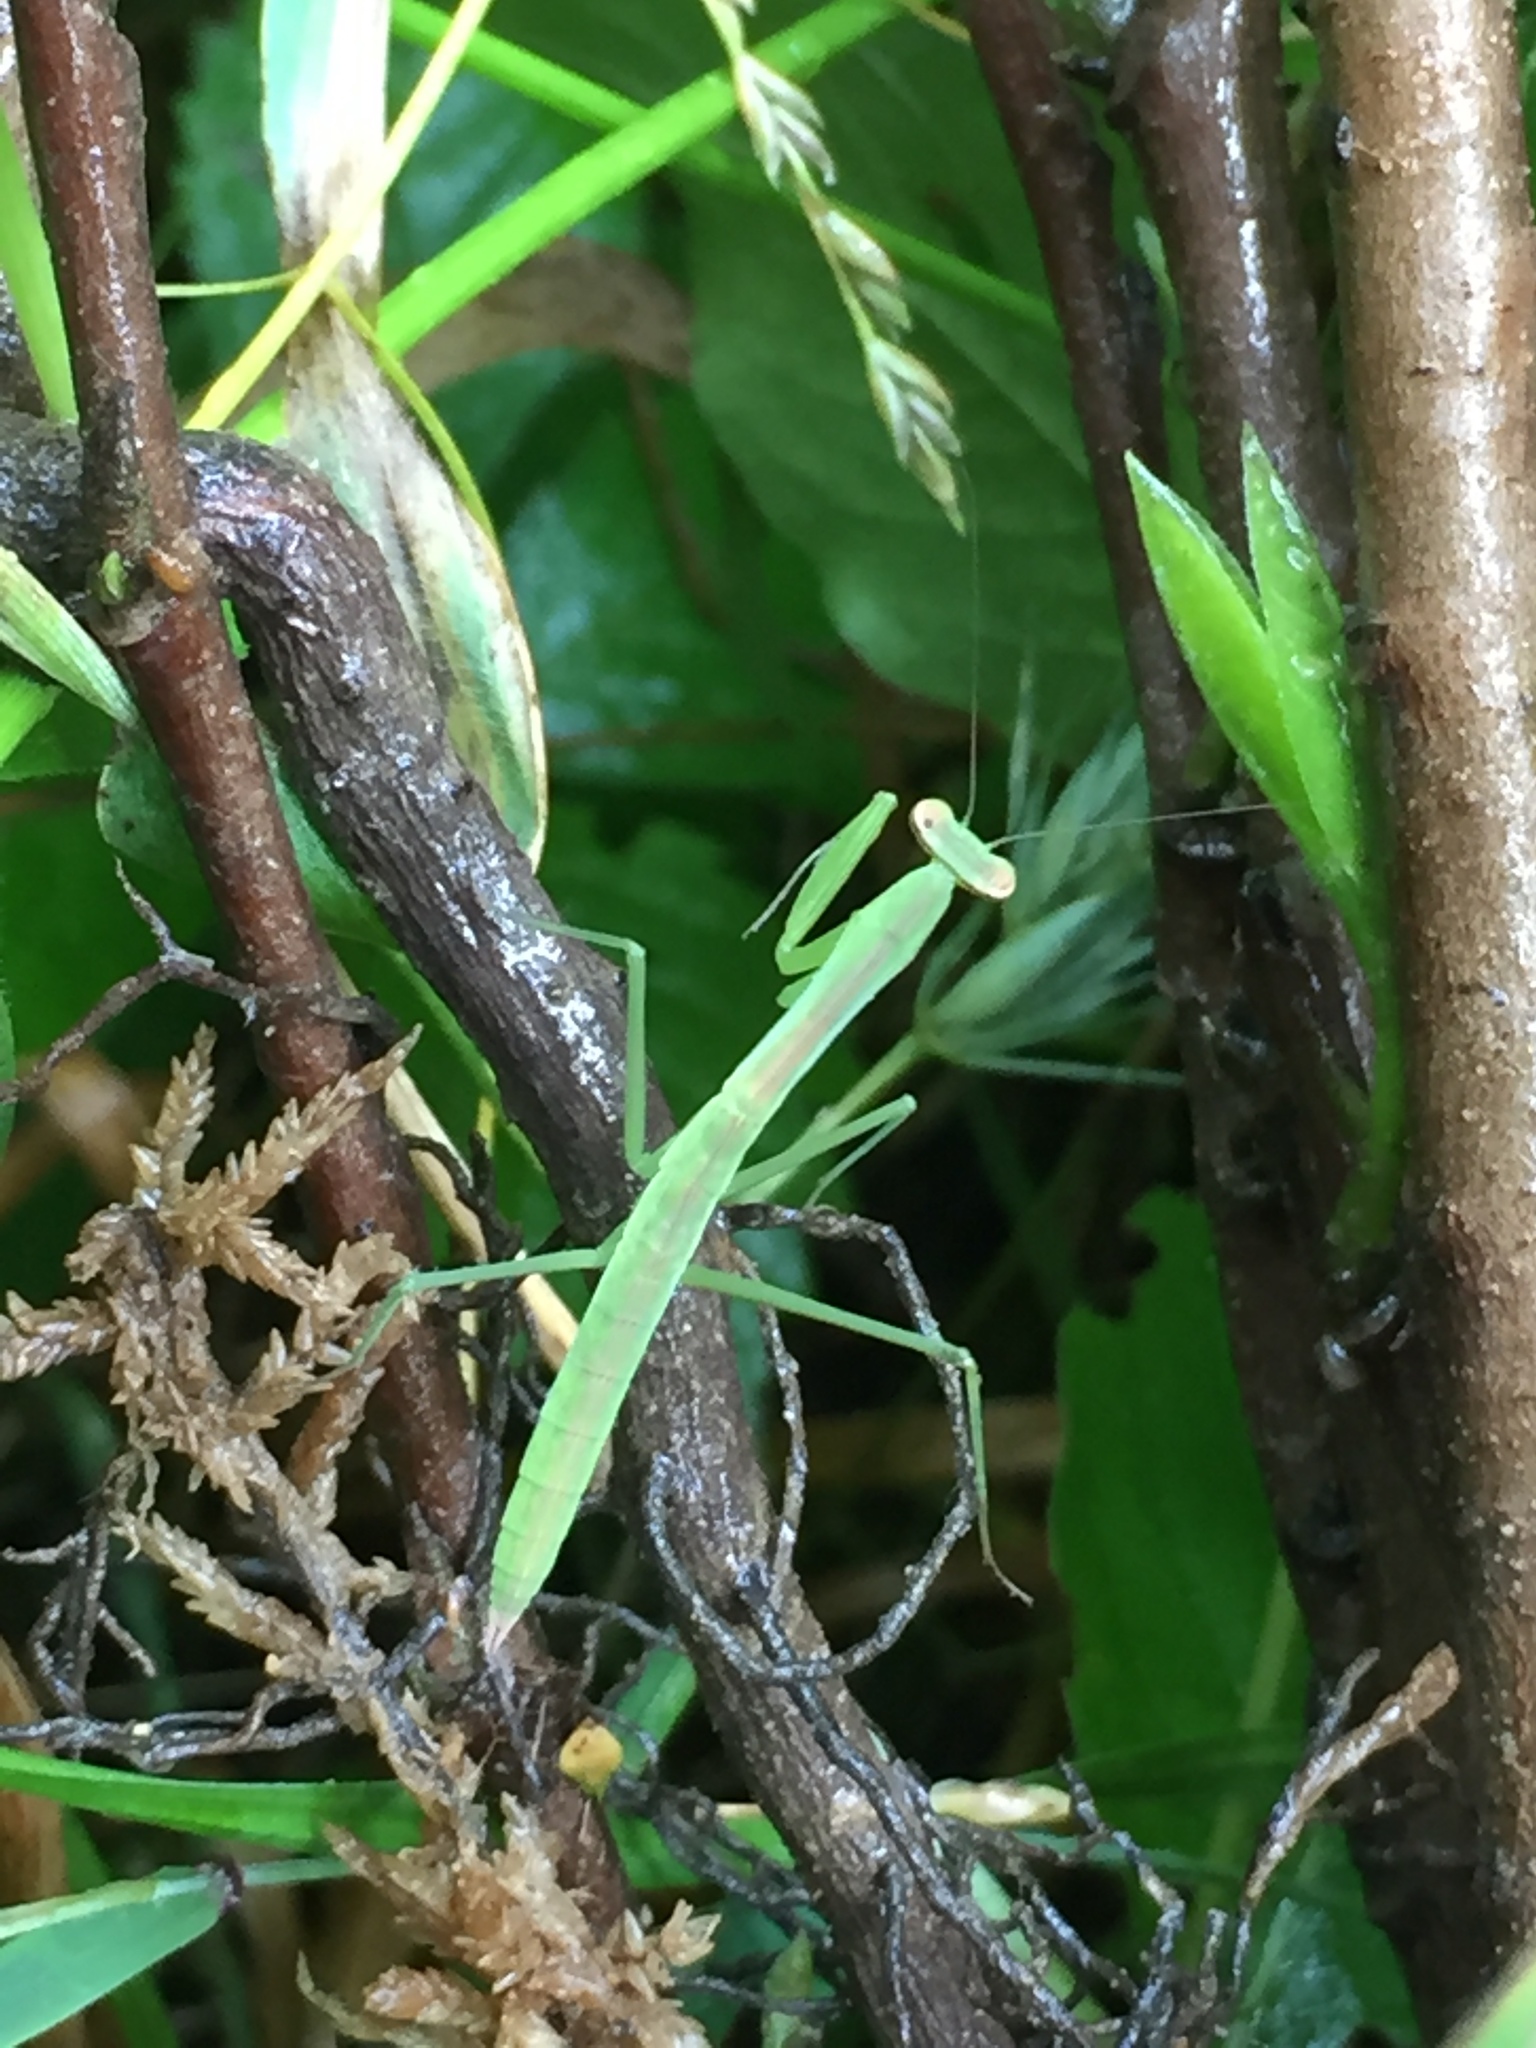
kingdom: Animalia
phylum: Arthropoda
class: Insecta
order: Mantodea
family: Mantidae
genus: Tenodera
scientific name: Tenodera sinensis
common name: Chinese mantis
